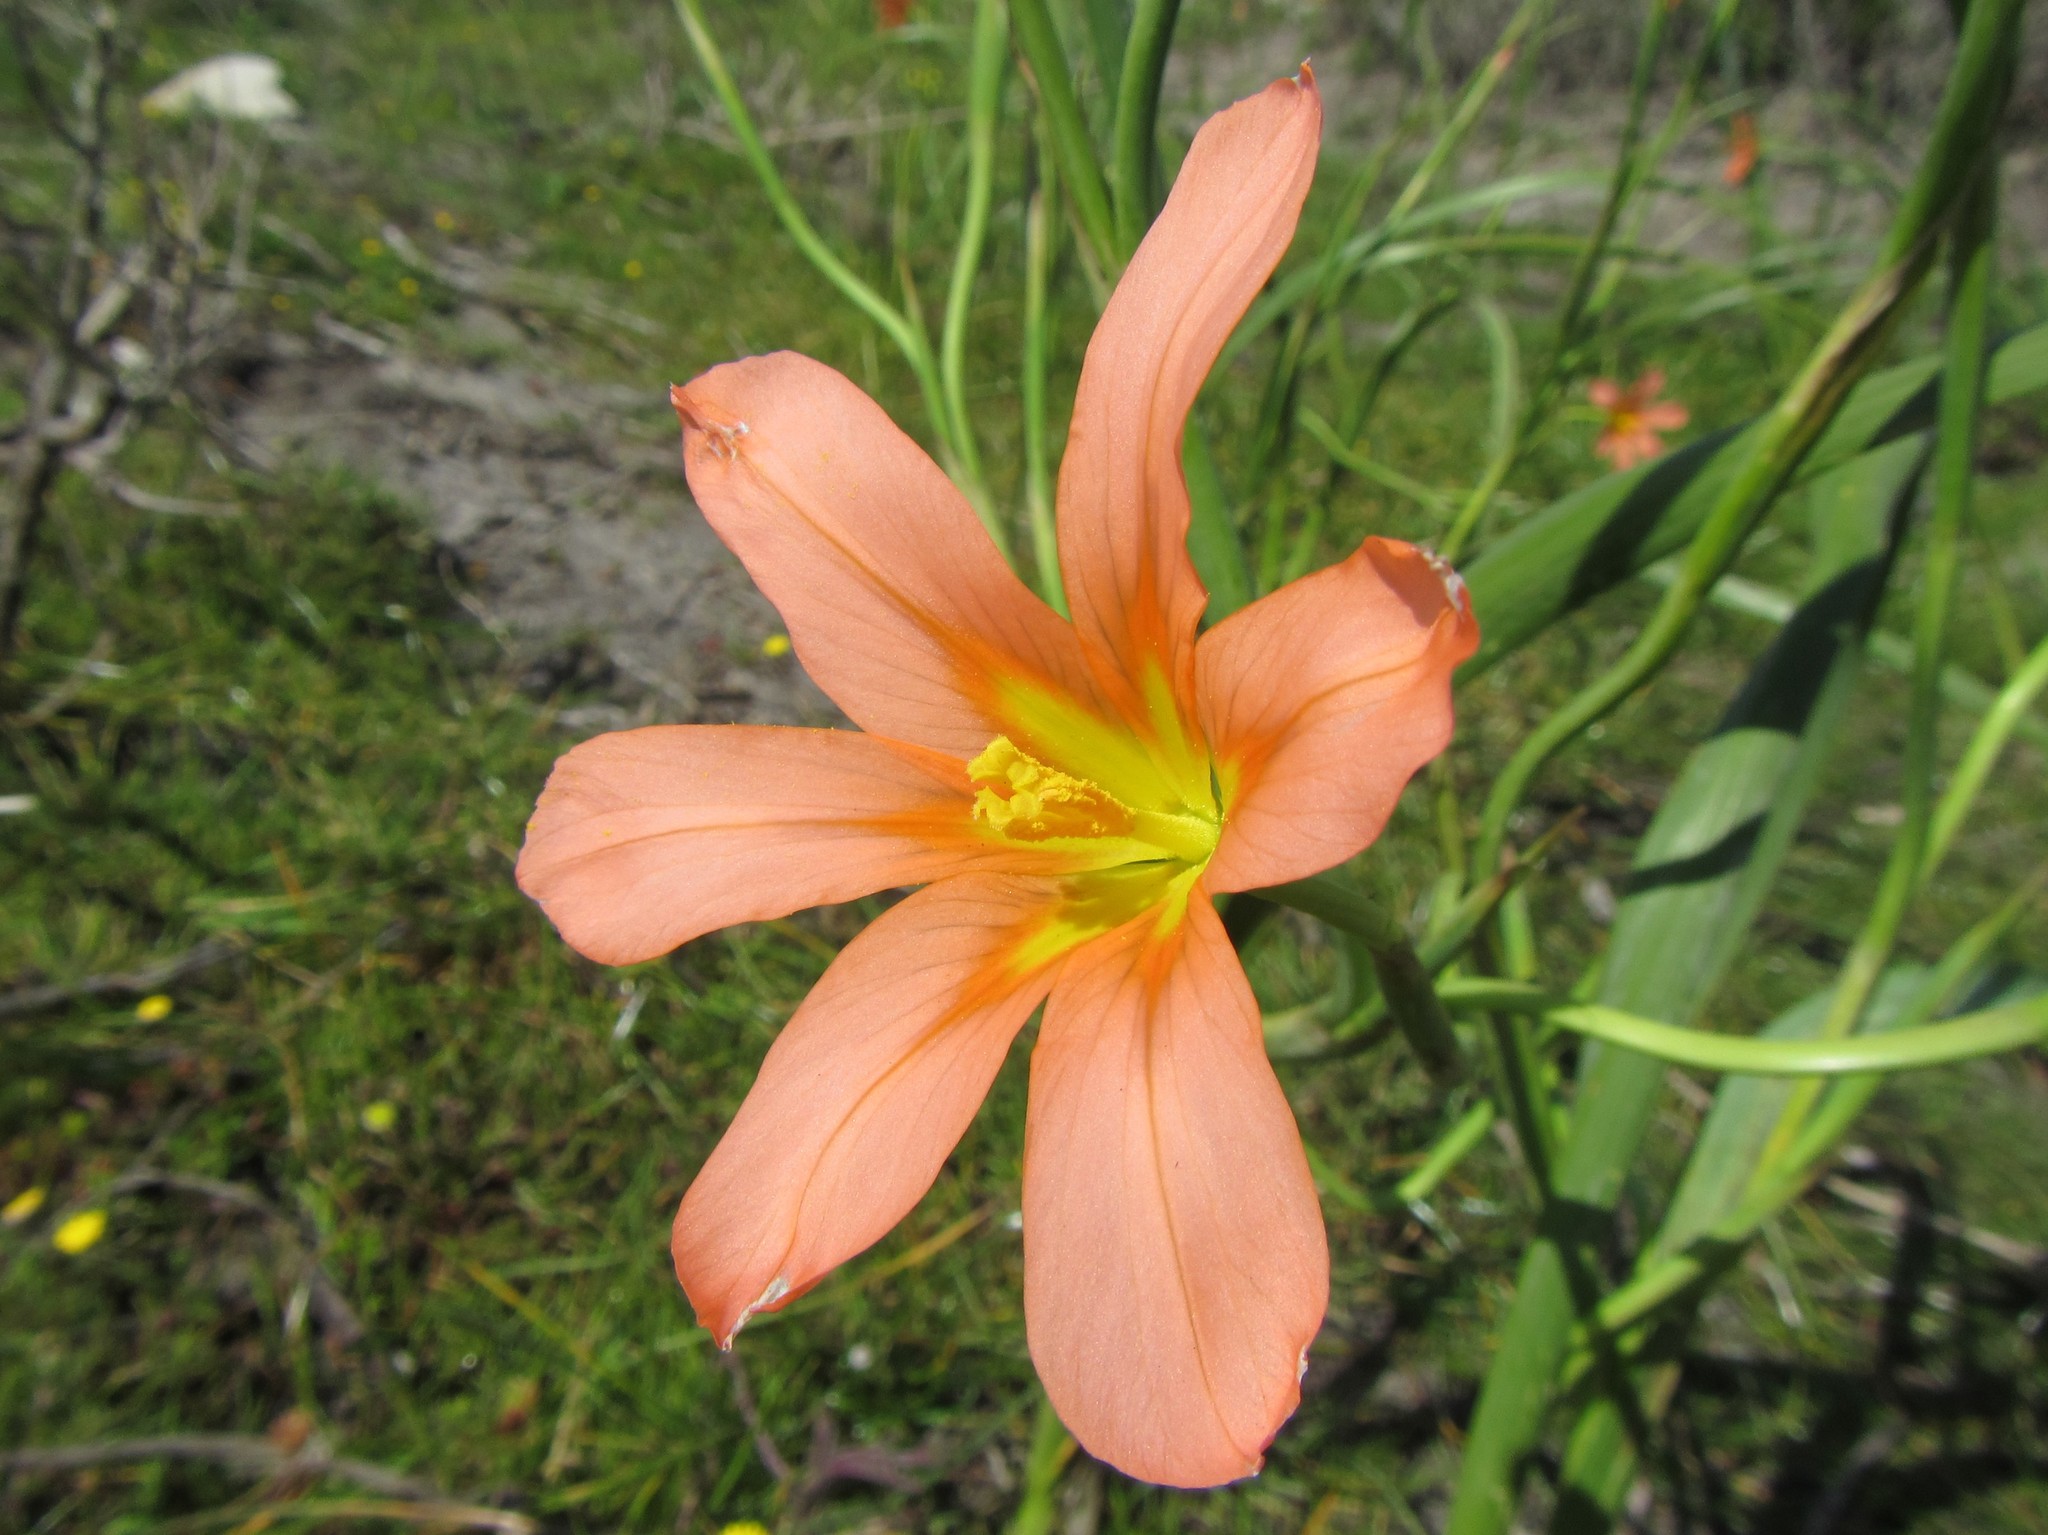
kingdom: Plantae
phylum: Tracheophyta
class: Liliopsida
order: Asparagales
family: Iridaceae
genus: Moraea
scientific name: Moraea flaccida
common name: One-leaf cape-tulip
